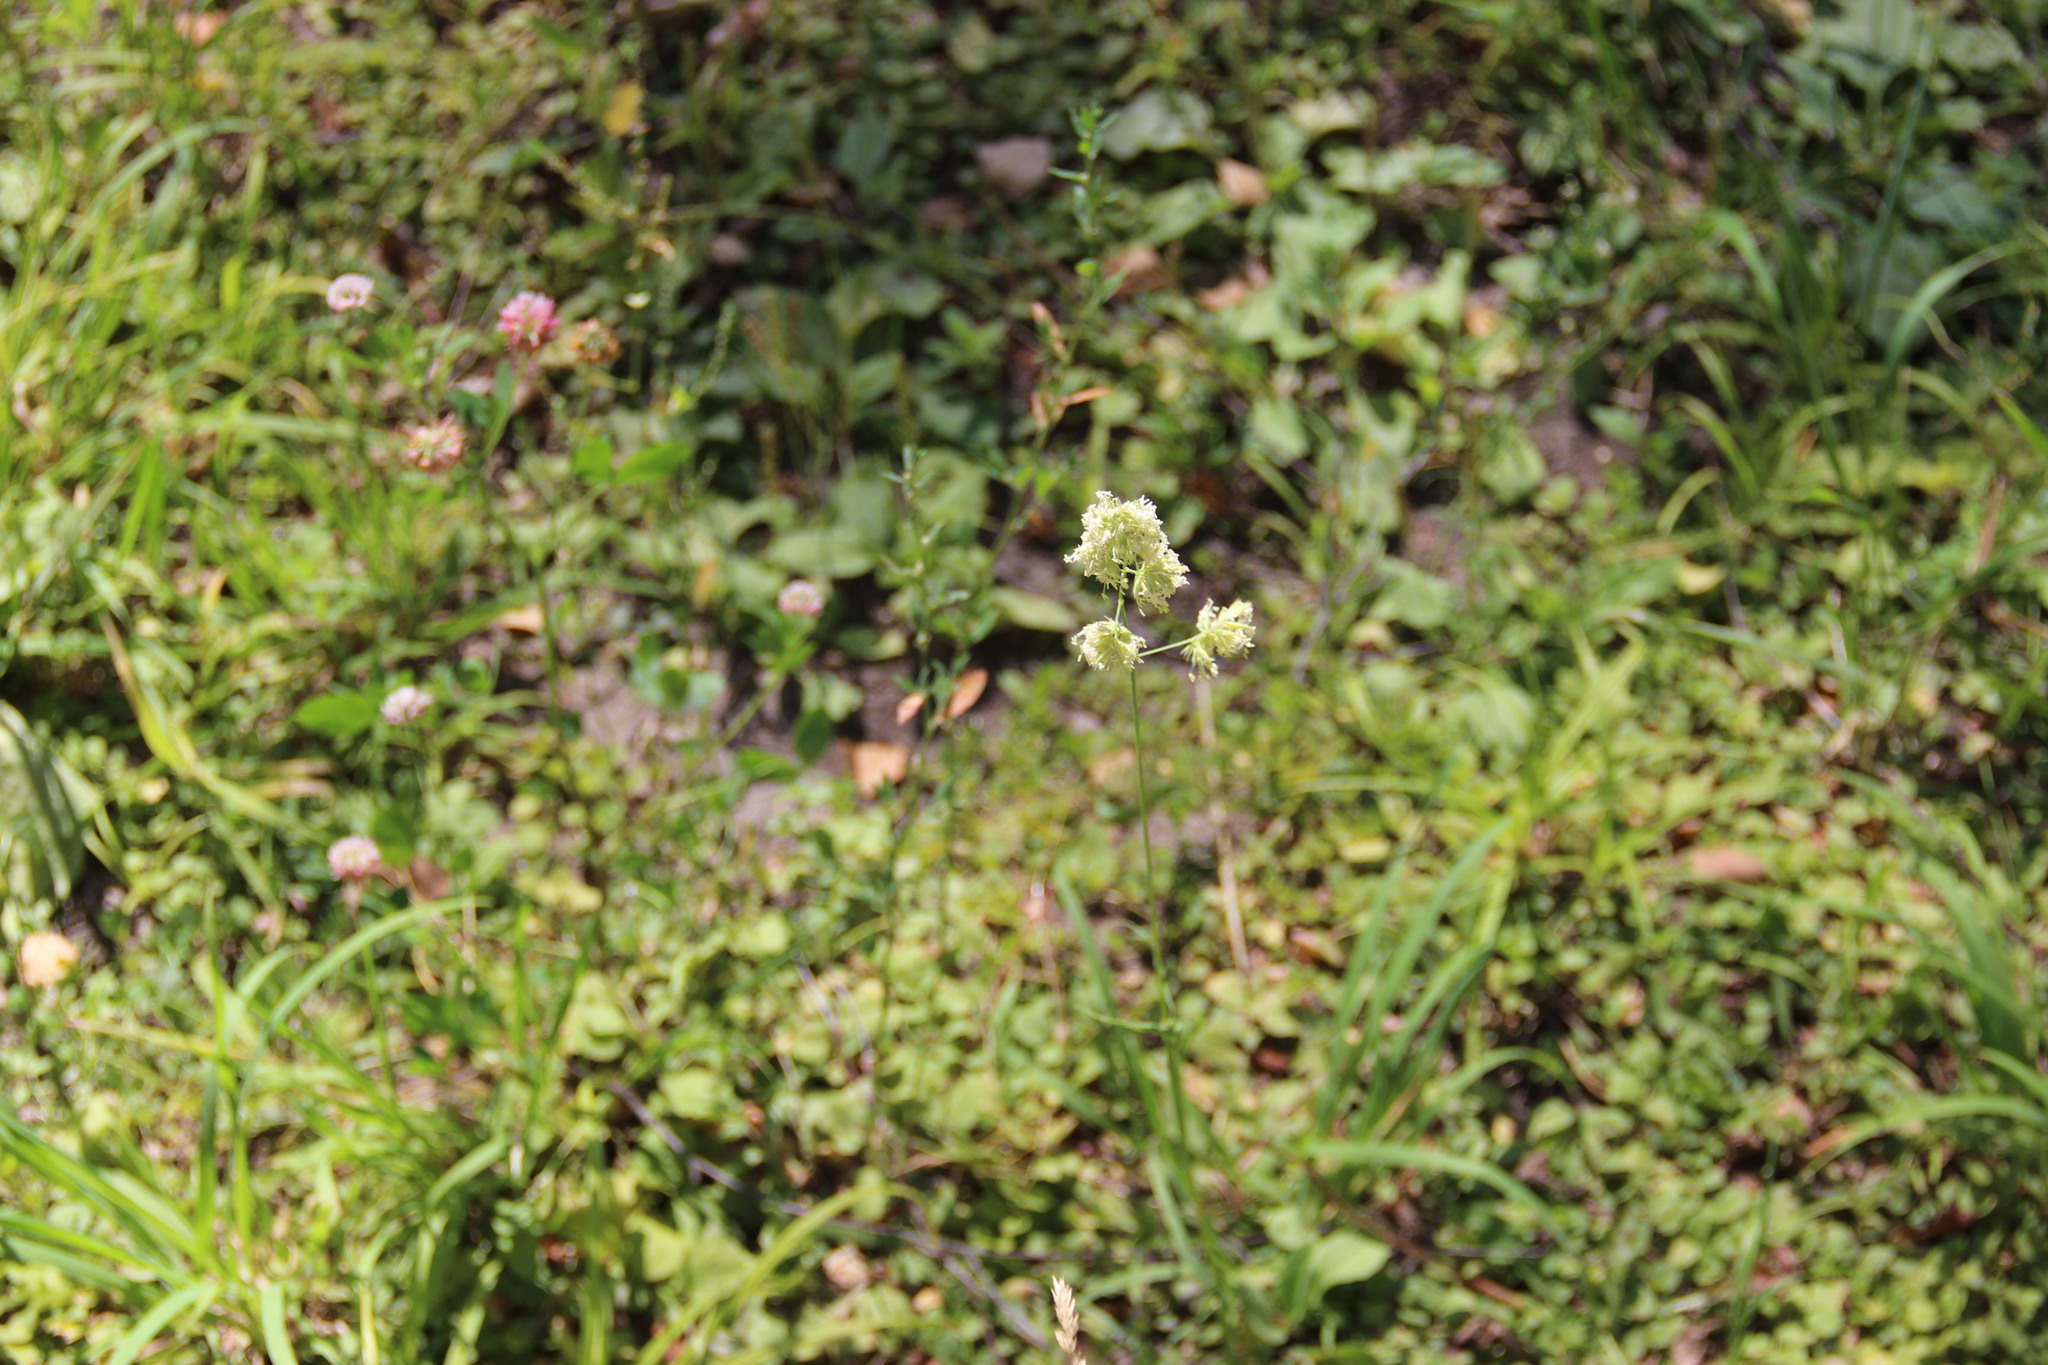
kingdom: Plantae
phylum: Tracheophyta
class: Liliopsida
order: Poales
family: Poaceae
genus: Dactylis
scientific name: Dactylis glomerata
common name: Orchardgrass
